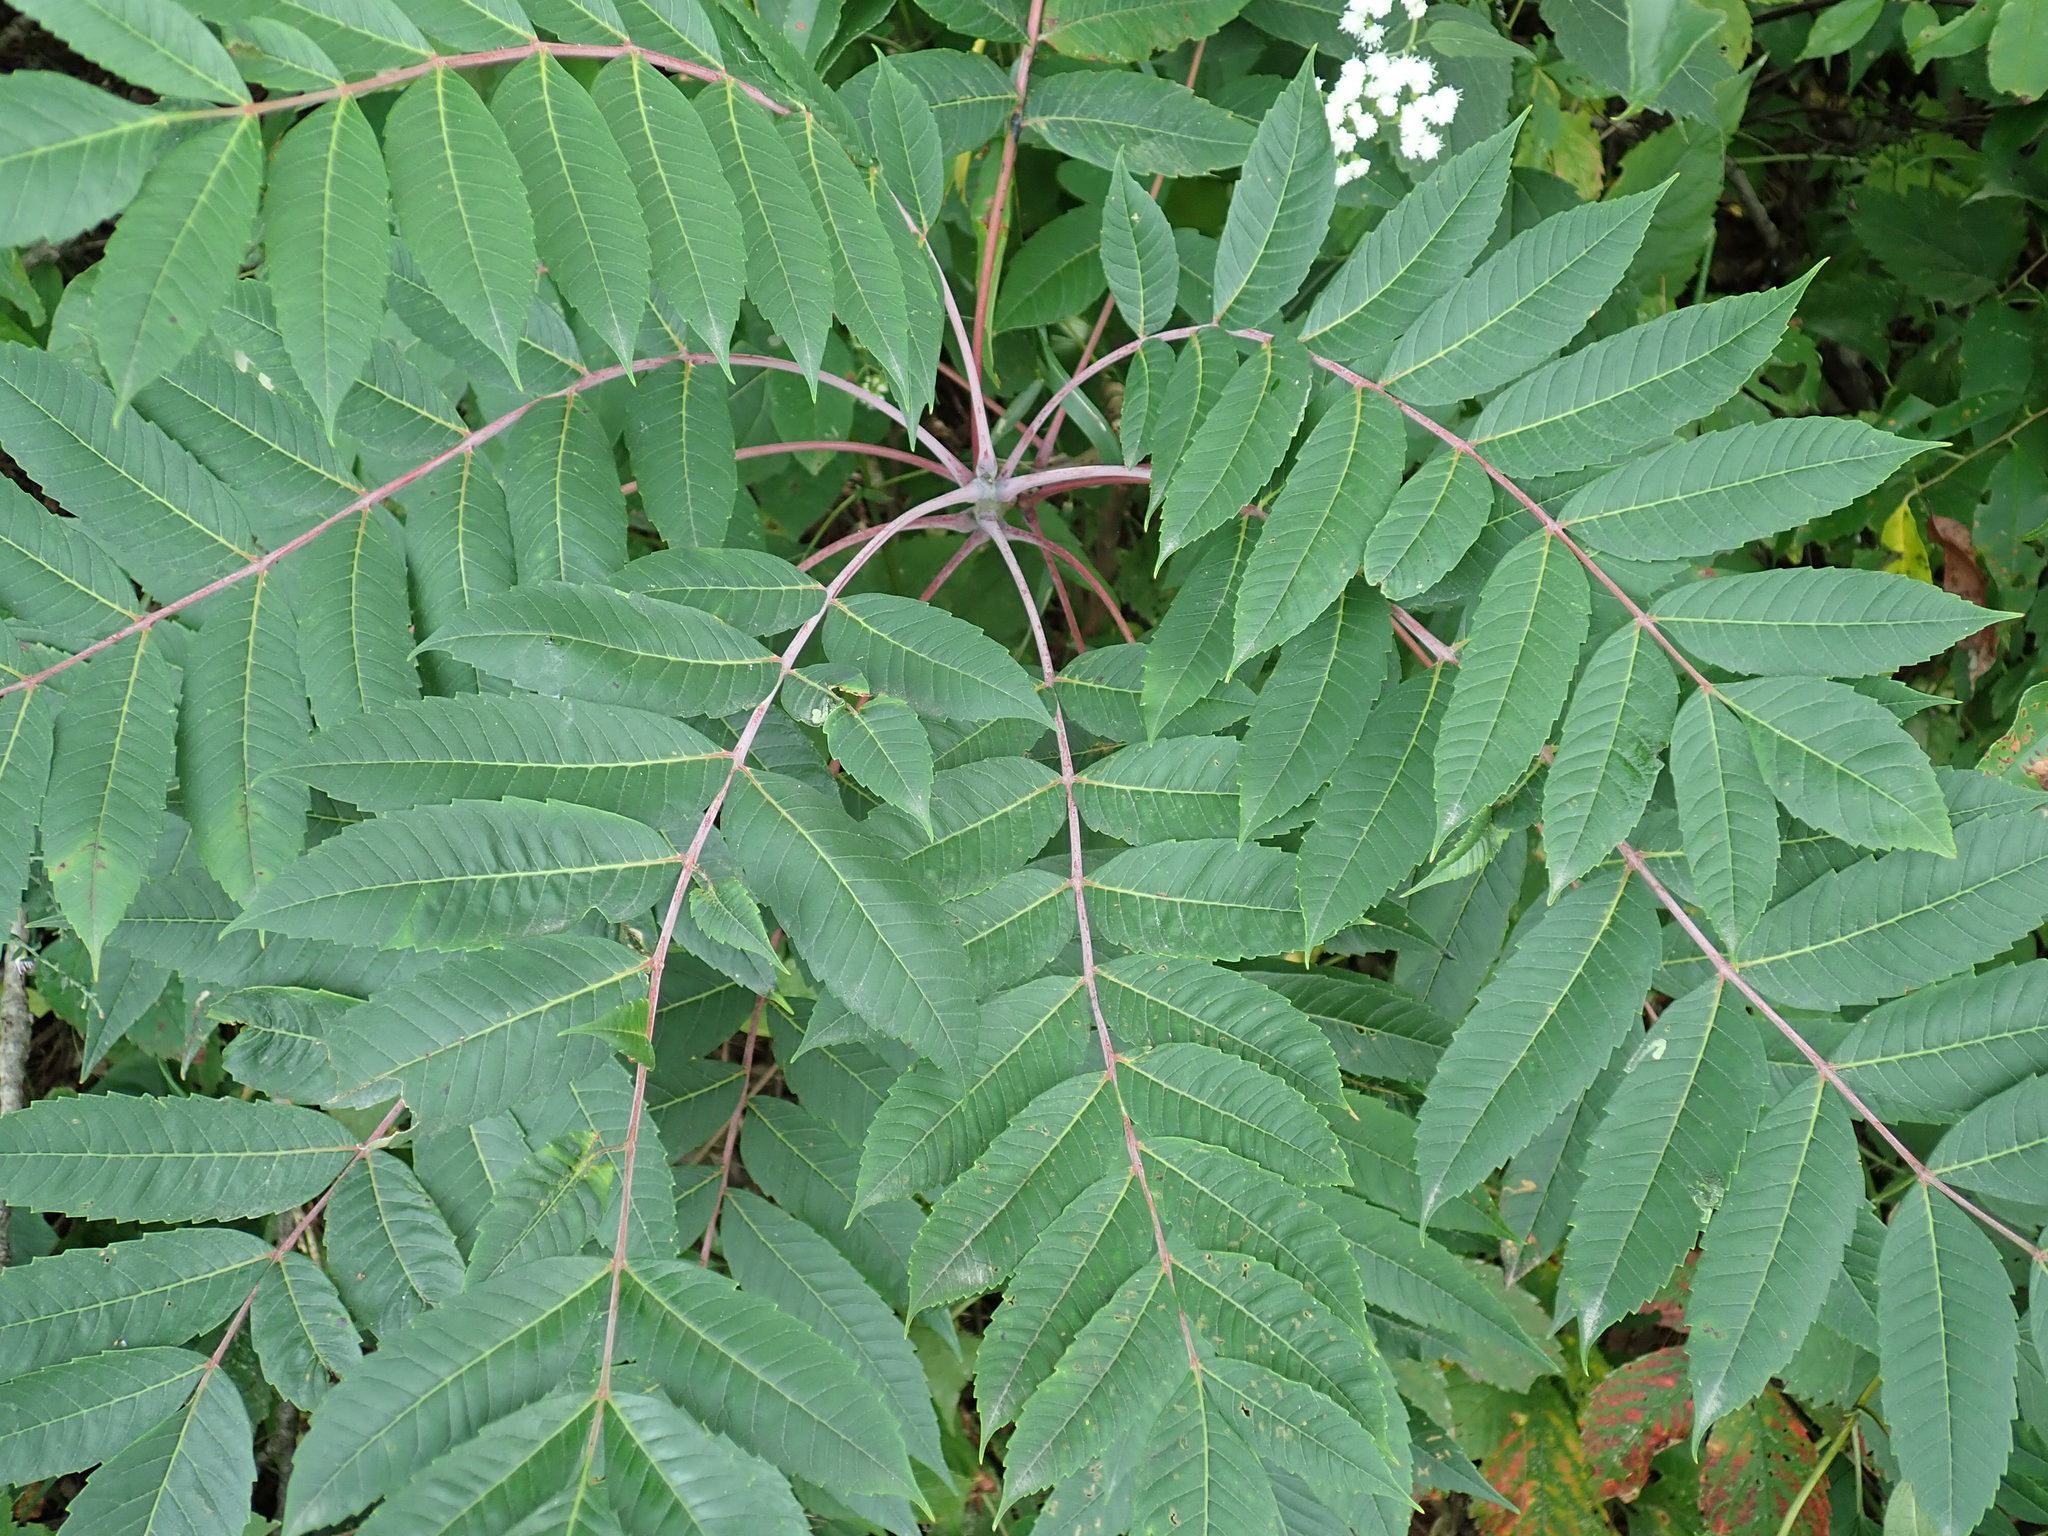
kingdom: Plantae
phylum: Tracheophyta
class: Magnoliopsida
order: Sapindales
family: Anacardiaceae
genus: Rhus
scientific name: Rhus glabra
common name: Scarlet sumac
